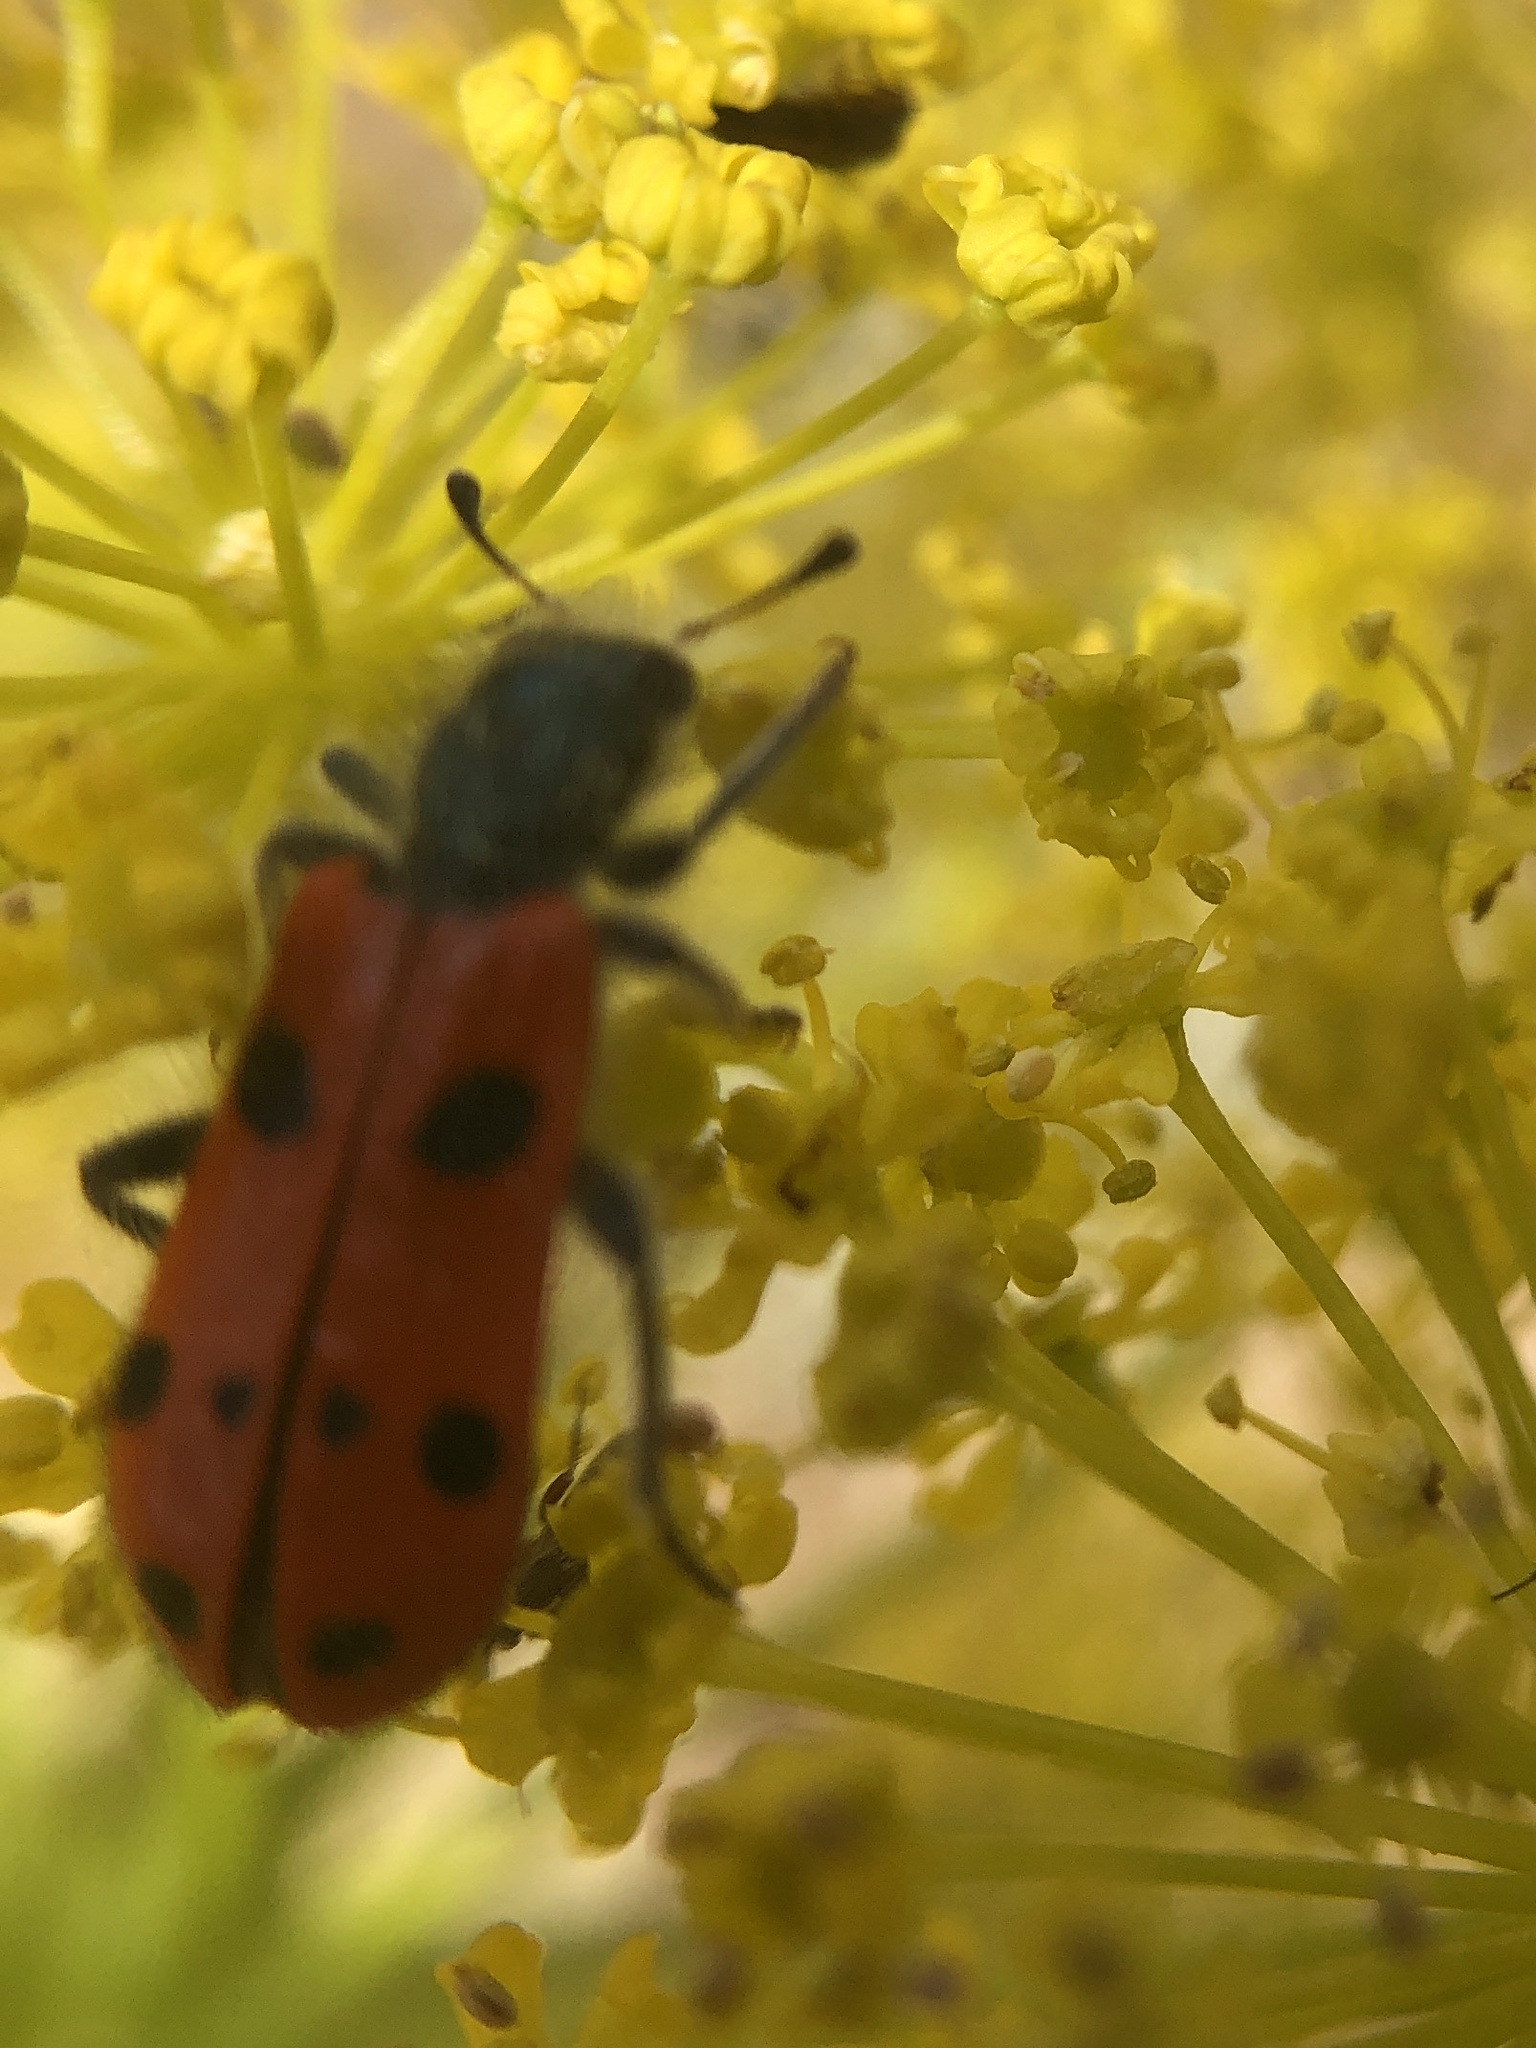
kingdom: Animalia
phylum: Arthropoda
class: Insecta
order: Coleoptera
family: Cleridae
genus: Trichodes
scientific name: Trichodes octopunctatus
